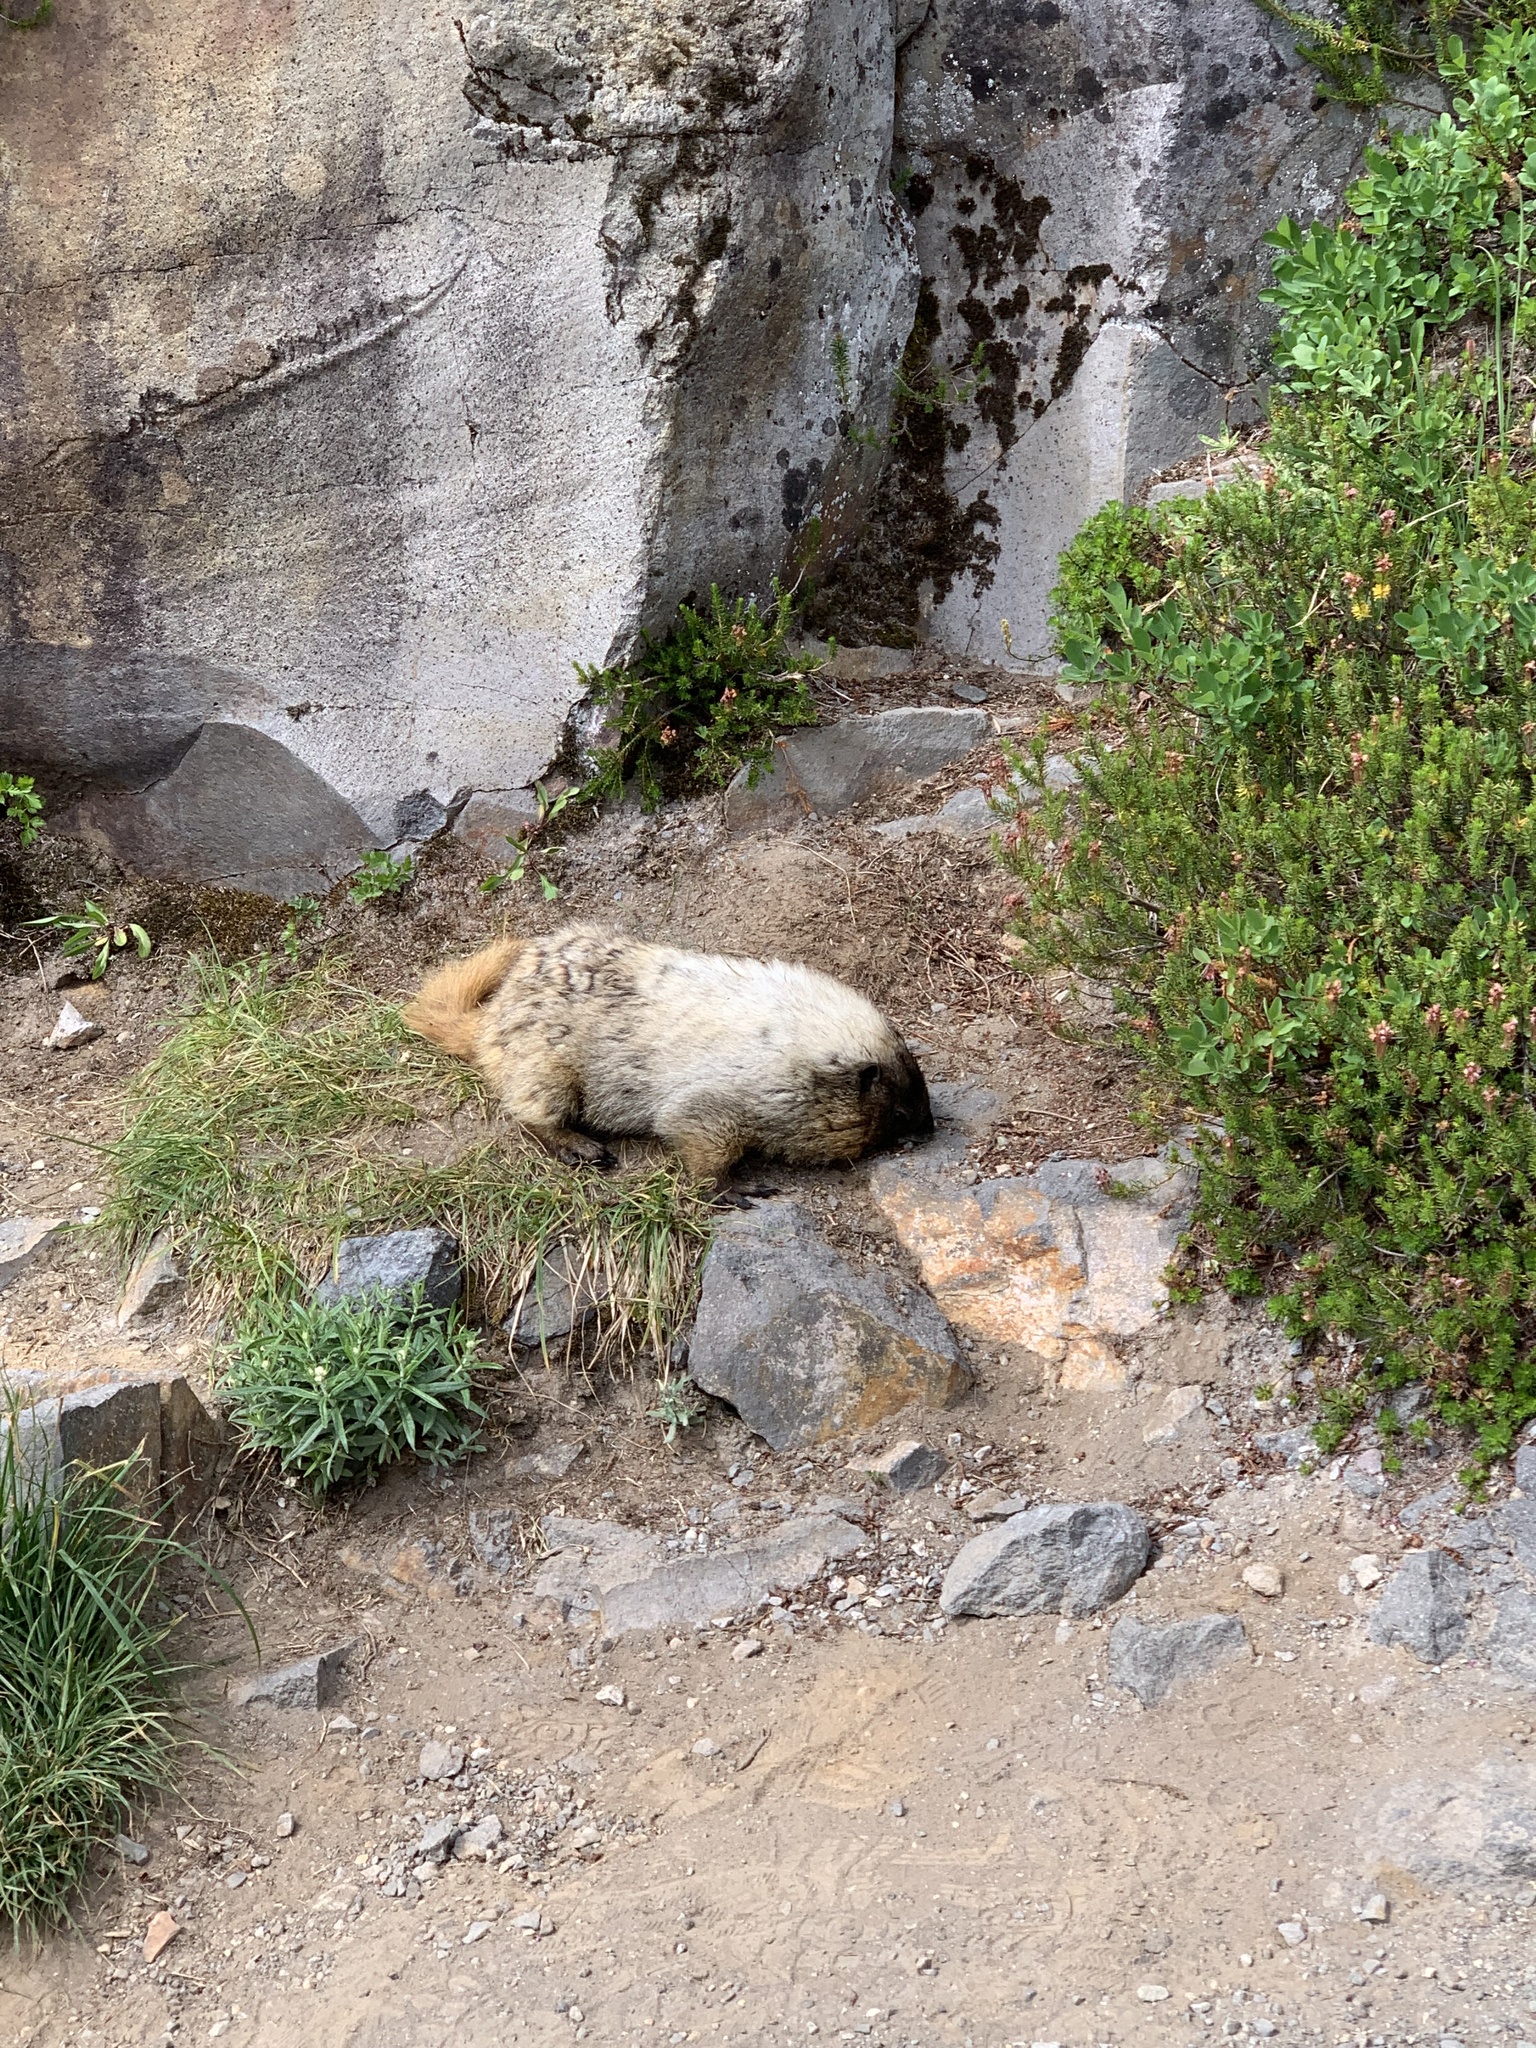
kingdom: Animalia
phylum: Chordata
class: Mammalia
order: Rodentia
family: Sciuridae
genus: Marmota
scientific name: Marmota caligata
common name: Hoary marmot
